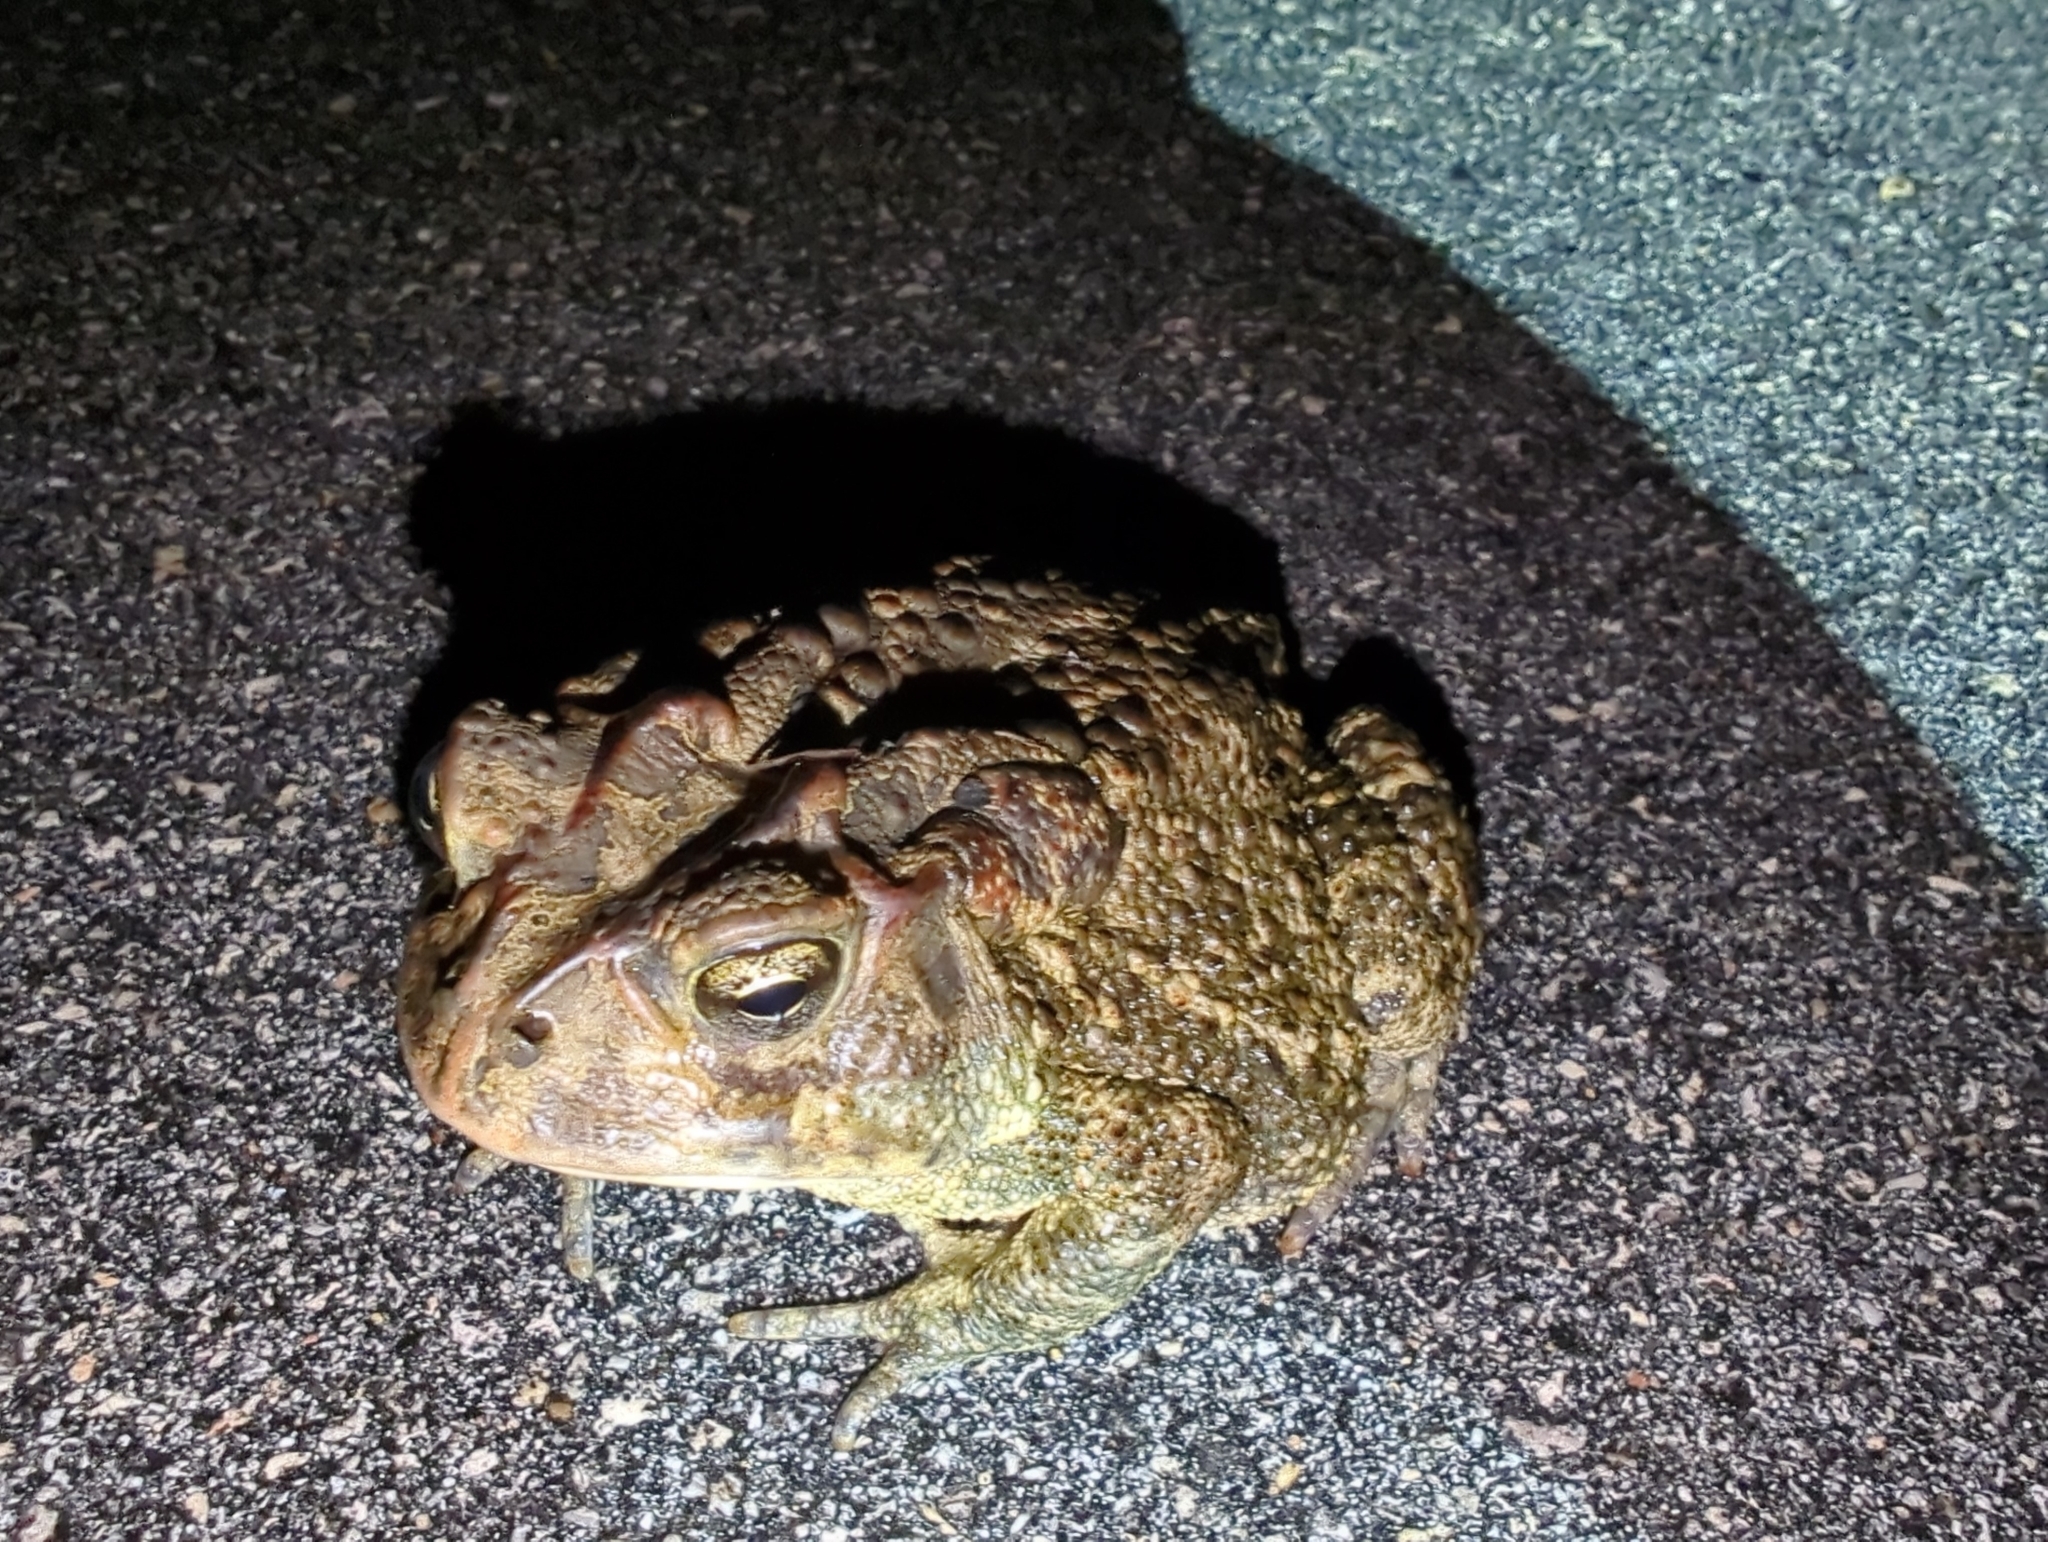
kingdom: Animalia
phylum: Chordata
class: Amphibia
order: Anura
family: Bufonidae
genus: Anaxyrus
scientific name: Anaxyrus terrestris
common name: Southern toad
